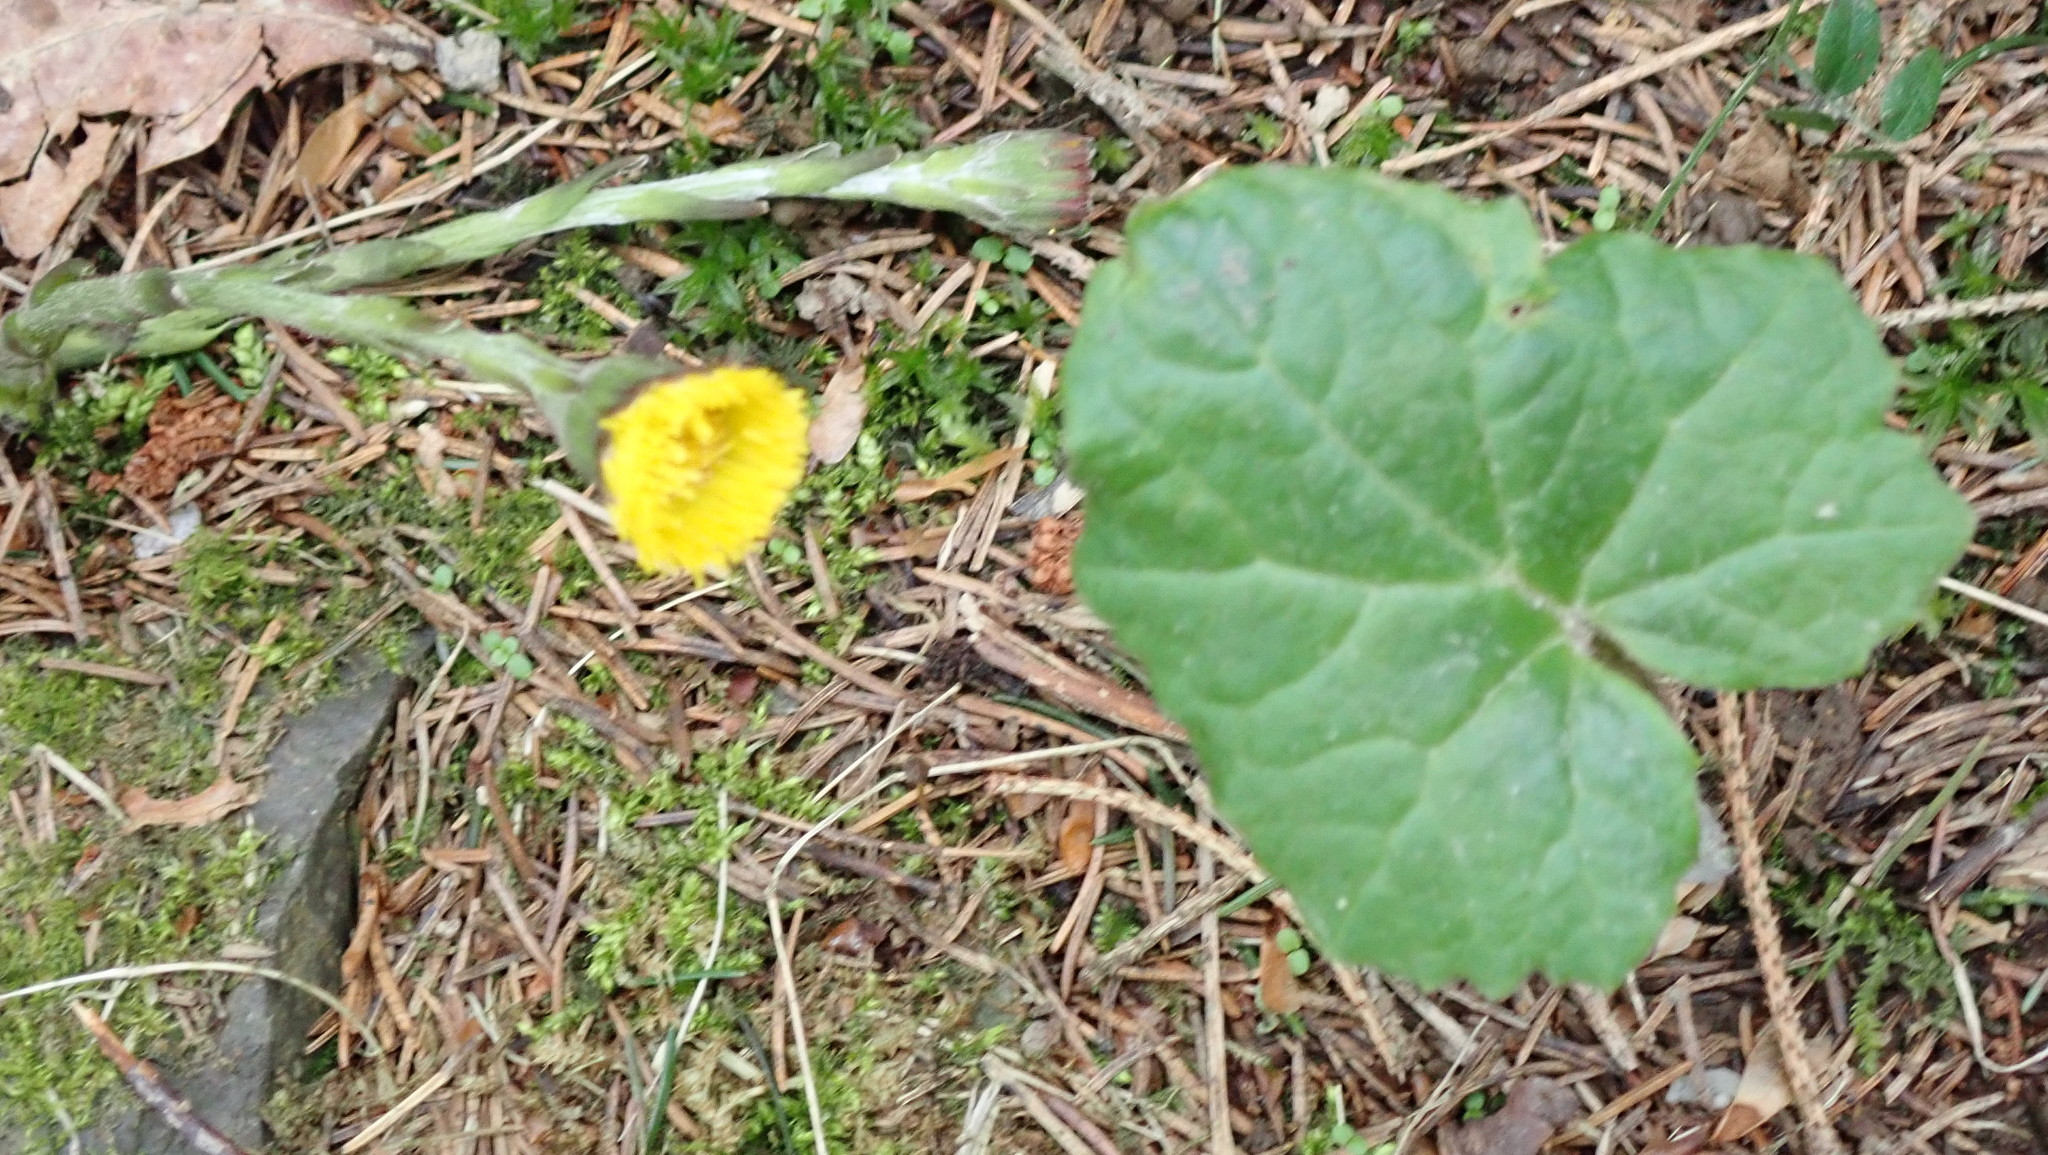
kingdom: Plantae
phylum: Tracheophyta
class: Magnoliopsida
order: Asterales
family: Asteraceae
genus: Tussilago
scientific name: Tussilago farfara
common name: Coltsfoot
